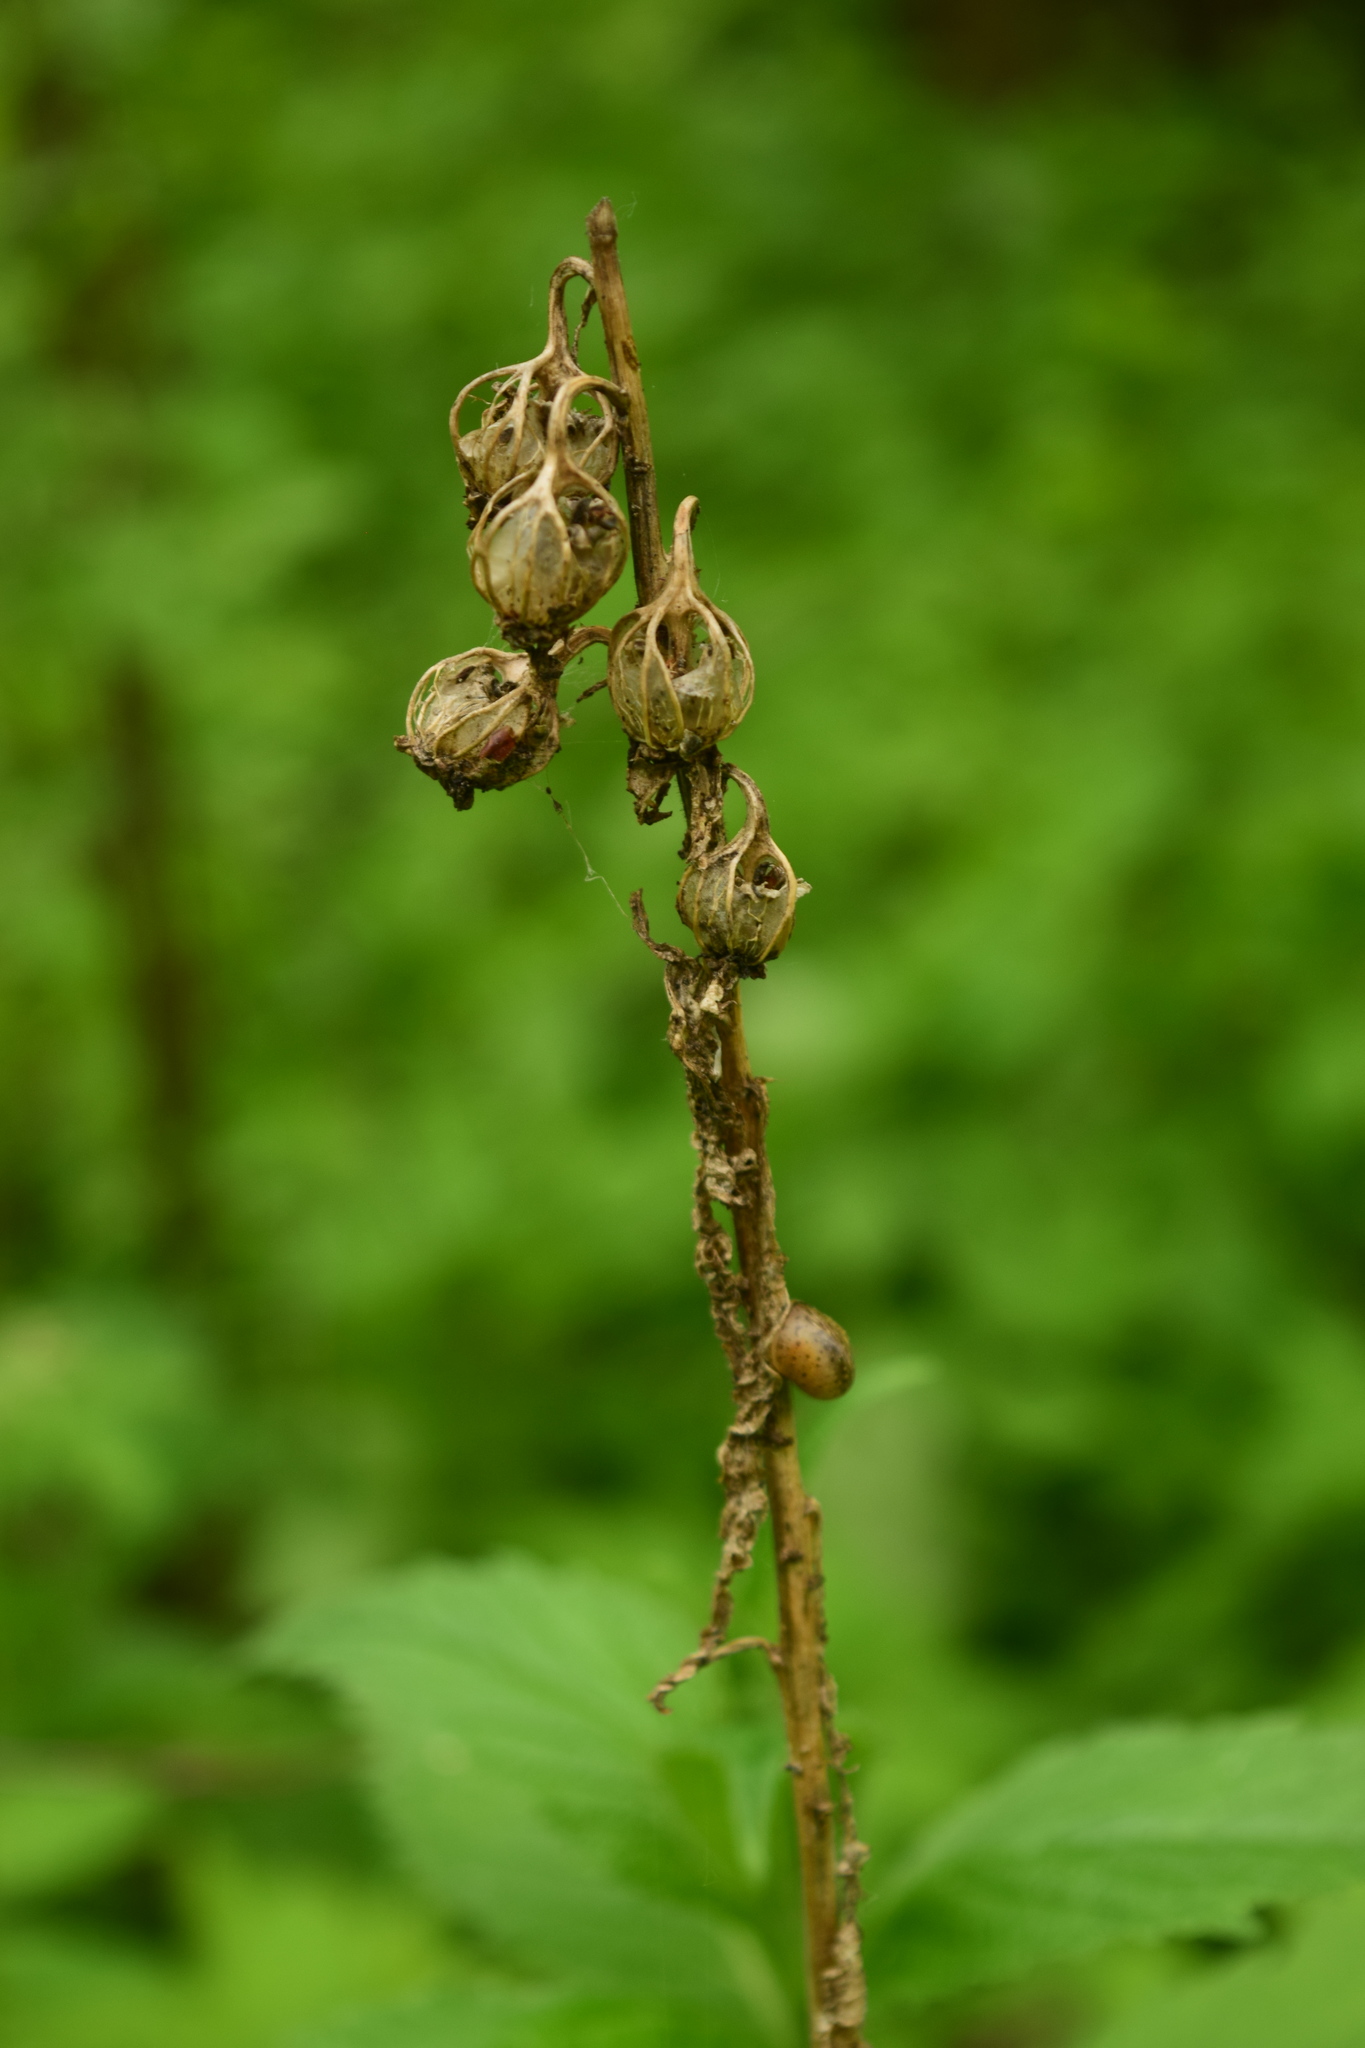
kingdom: Plantae
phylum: Tracheophyta
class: Magnoliopsida
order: Asterales
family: Campanulaceae
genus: Campanula
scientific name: Campanula trachelium
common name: Nettle-leaved bellflower
